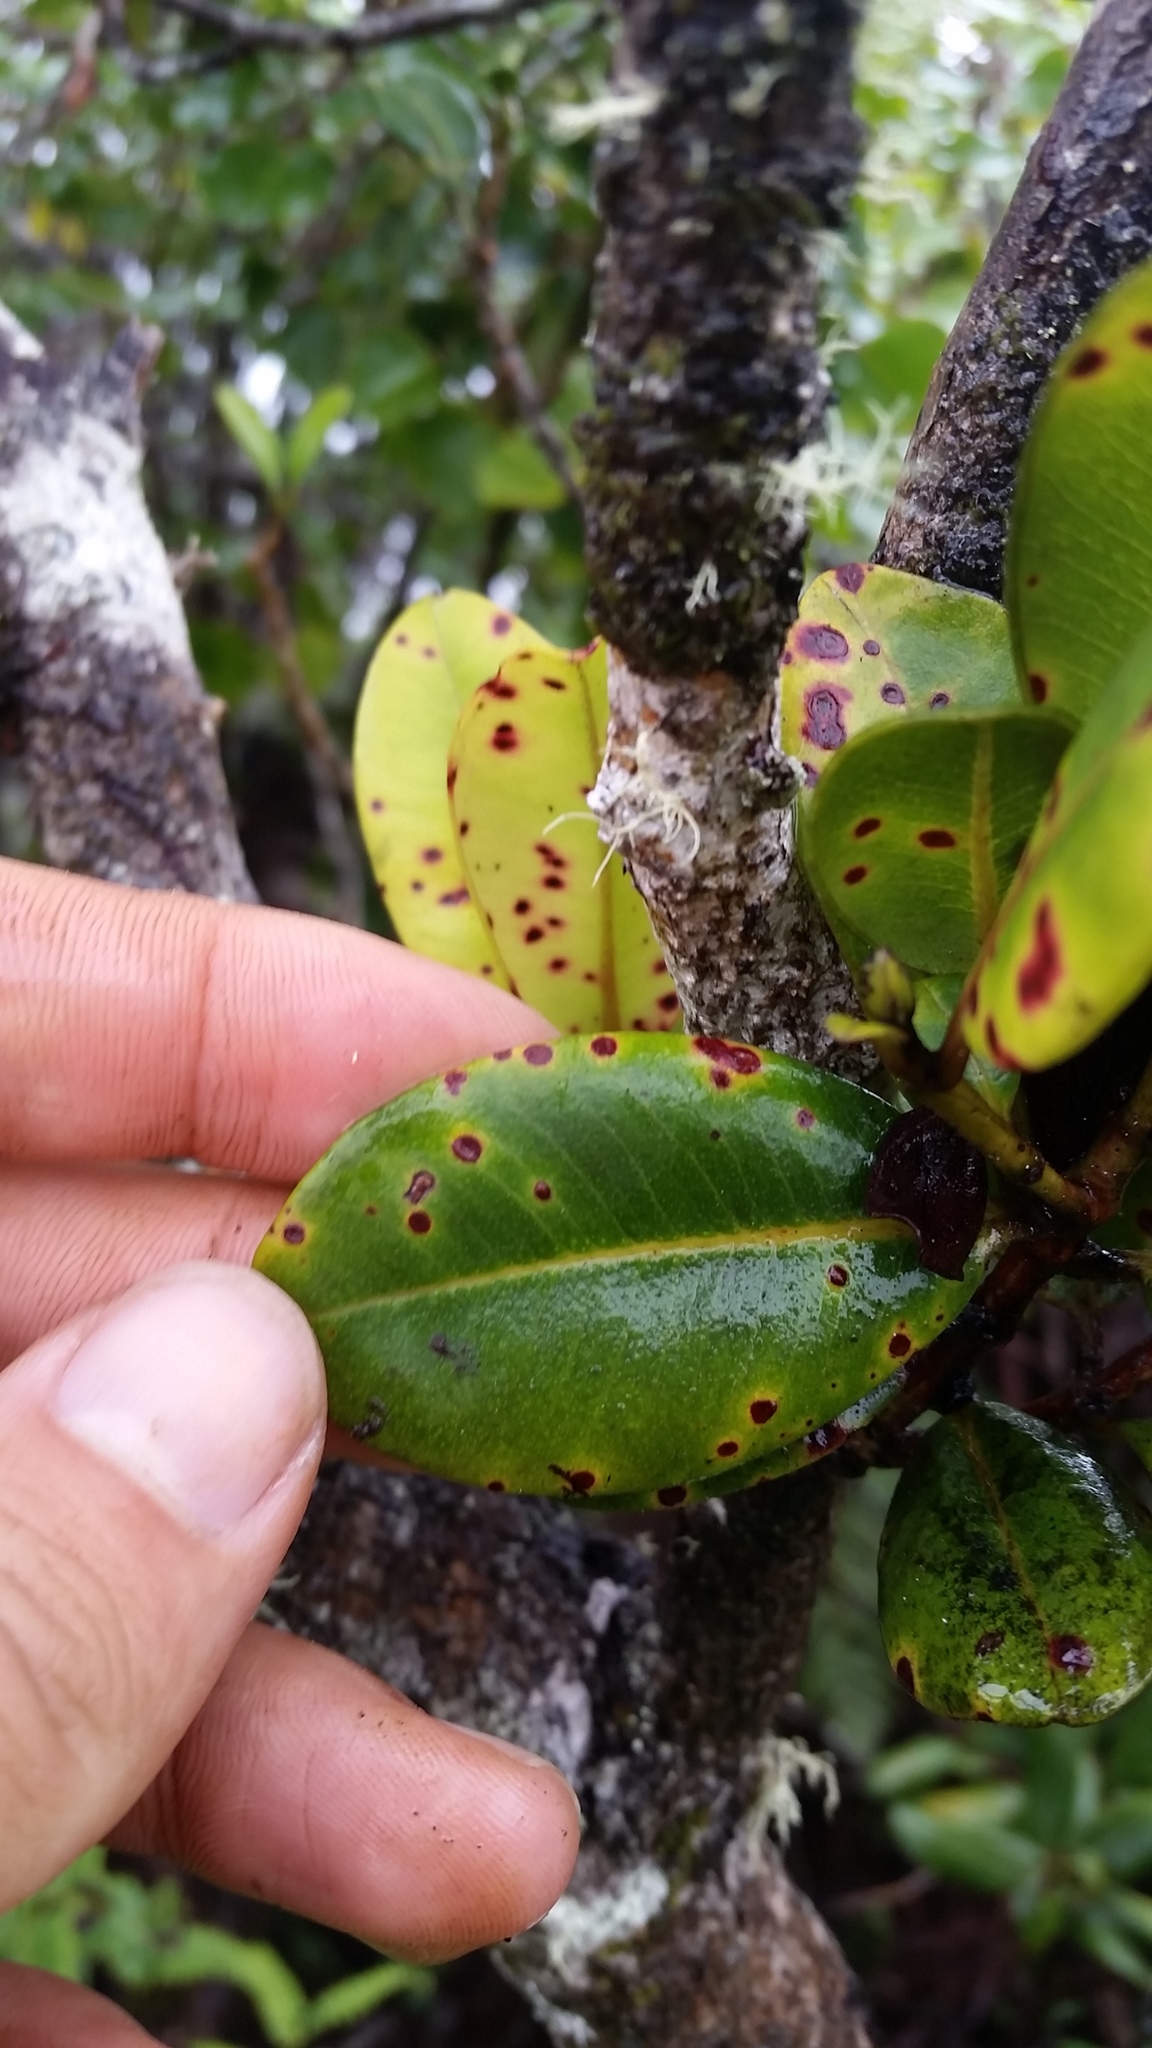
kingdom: Plantae
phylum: Tracheophyta
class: Magnoliopsida
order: Myrtales
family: Myrtaceae
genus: Syzygium
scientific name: Syzygium sandwicense
